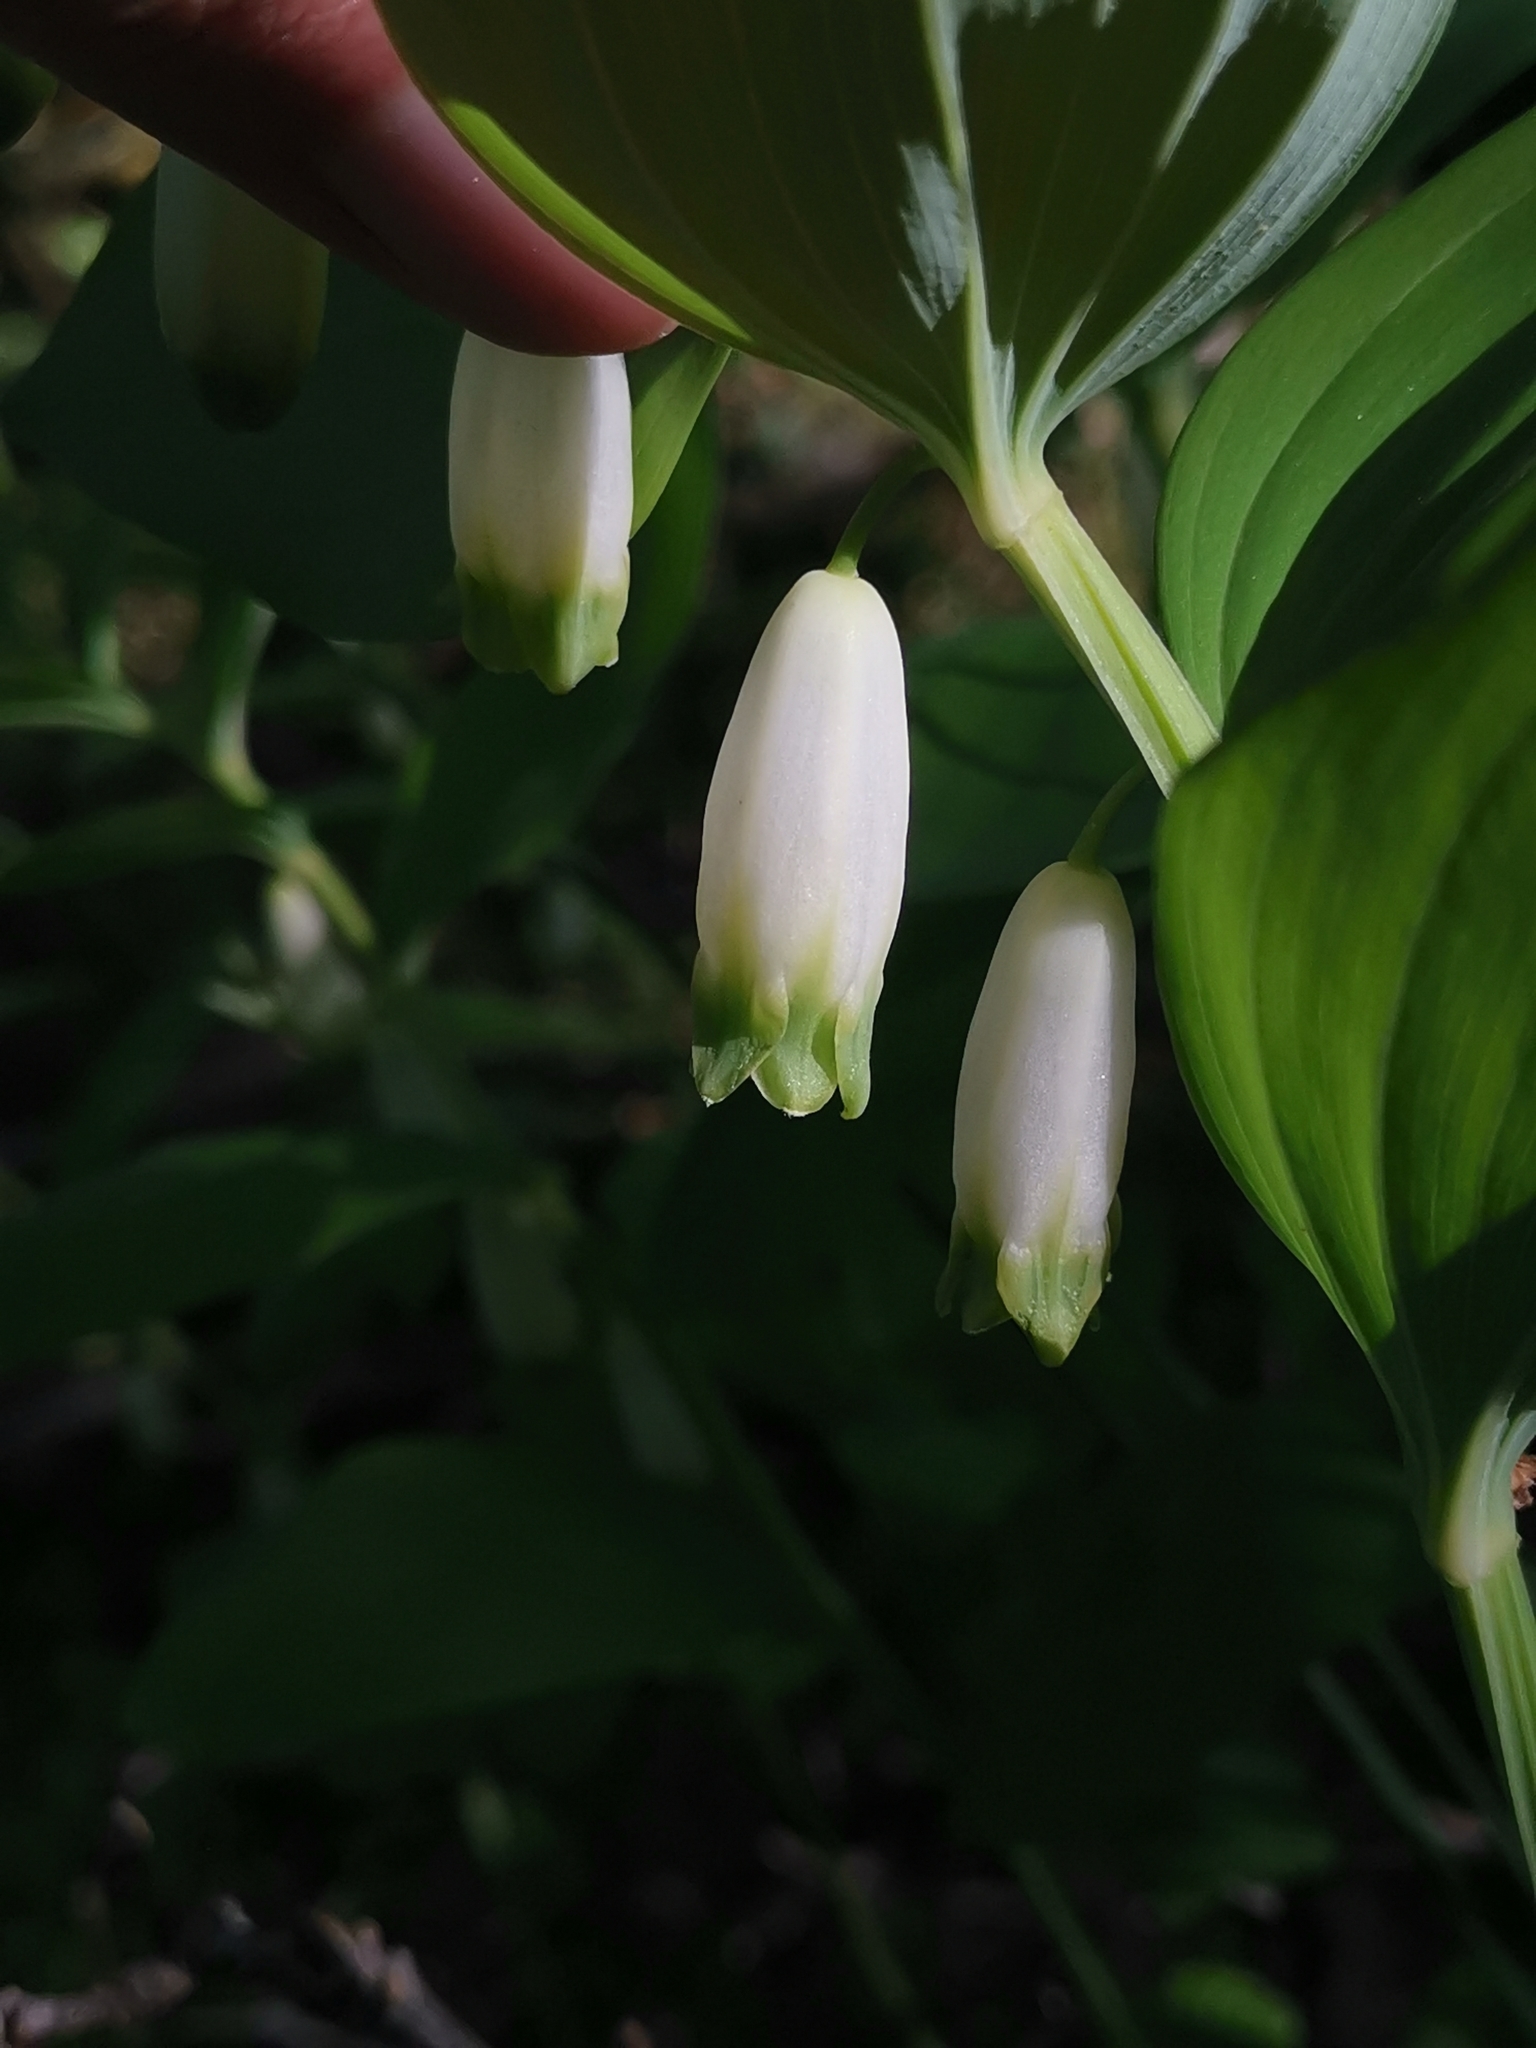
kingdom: Plantae
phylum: Tracheophyta
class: Liliopsida
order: Asparagales
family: Asparagaceae
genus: Polygonatum
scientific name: Polygonatum odoratum
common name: Angular solomon's-seal
